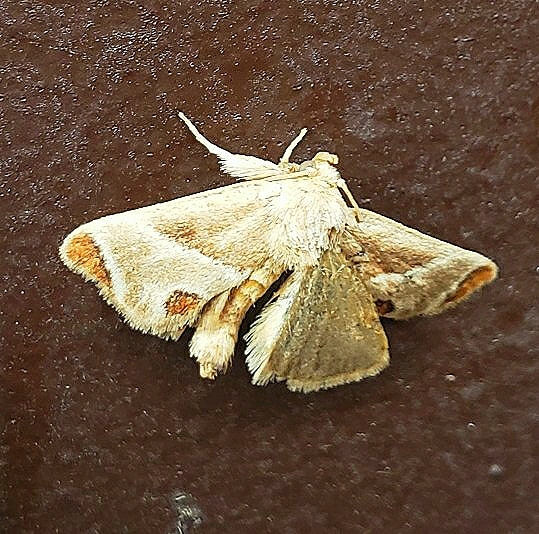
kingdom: Animalia
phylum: Arthropoda
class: Insecta
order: Lepidoptera
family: Limacodidae
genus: Apoda
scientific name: Apoda biguttata
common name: Shagreened slug moth
